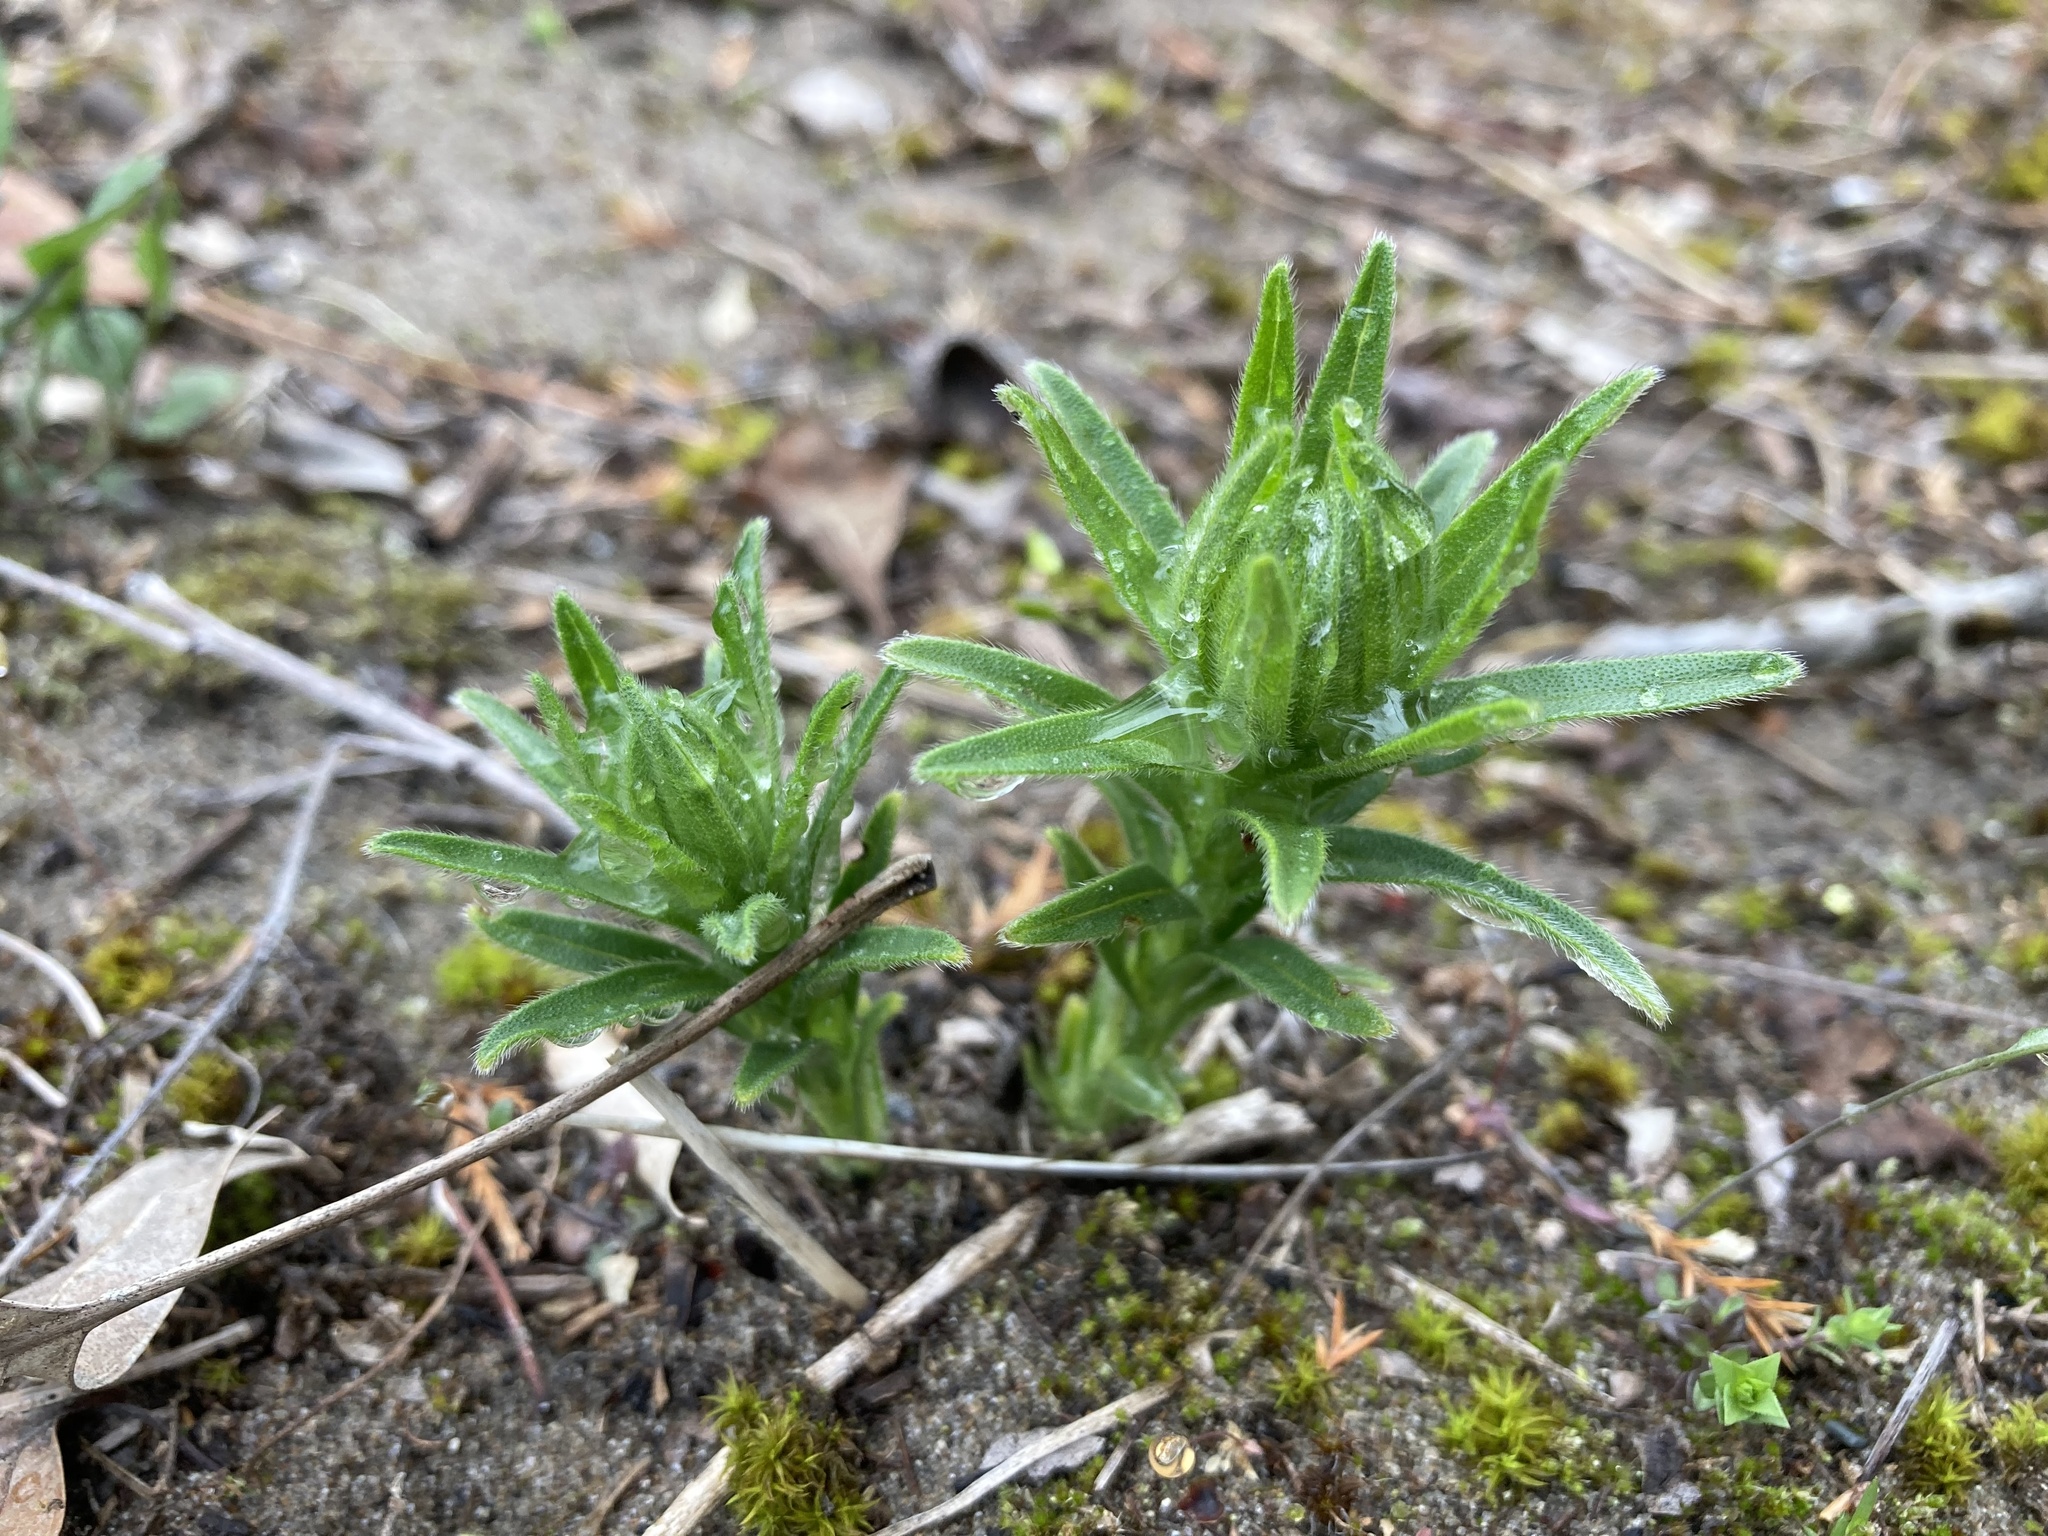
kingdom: Plantae
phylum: Tracheophyta
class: Magnoliopsida
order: Boraginales
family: Boraginaceae
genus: Lithospermum
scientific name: Lithospermum caroliniense
